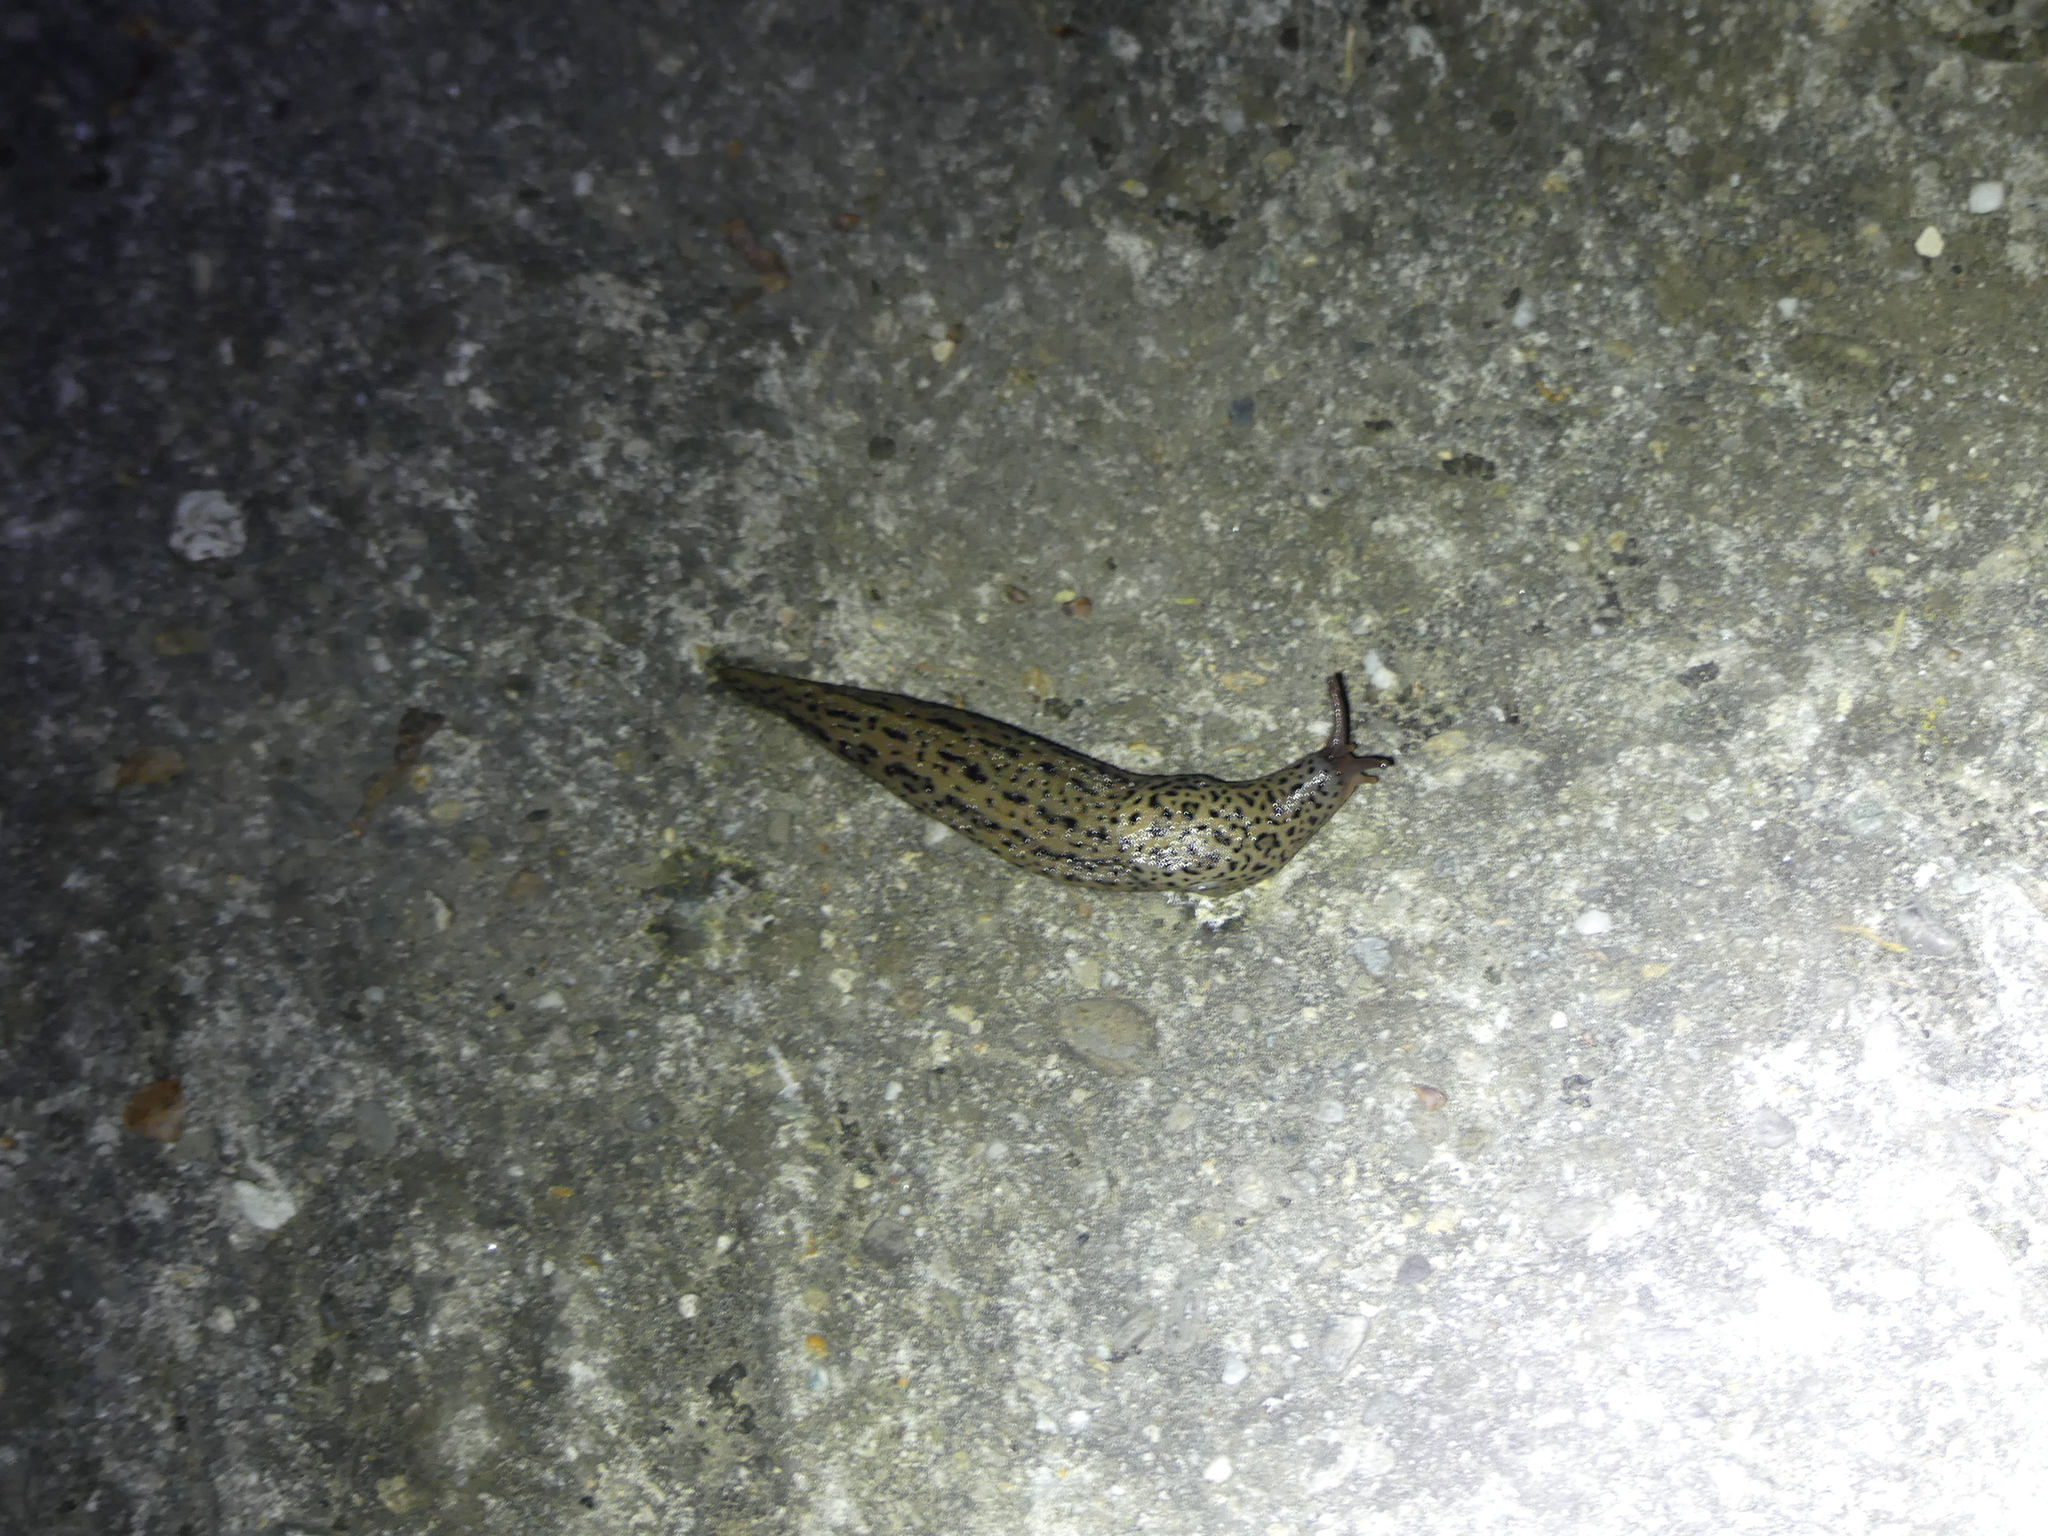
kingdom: Animalia
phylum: Mollusca
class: Gastropoda
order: Stylommatophora
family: Limacidae
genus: Limax
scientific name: Limax maximus
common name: Great grey slug
